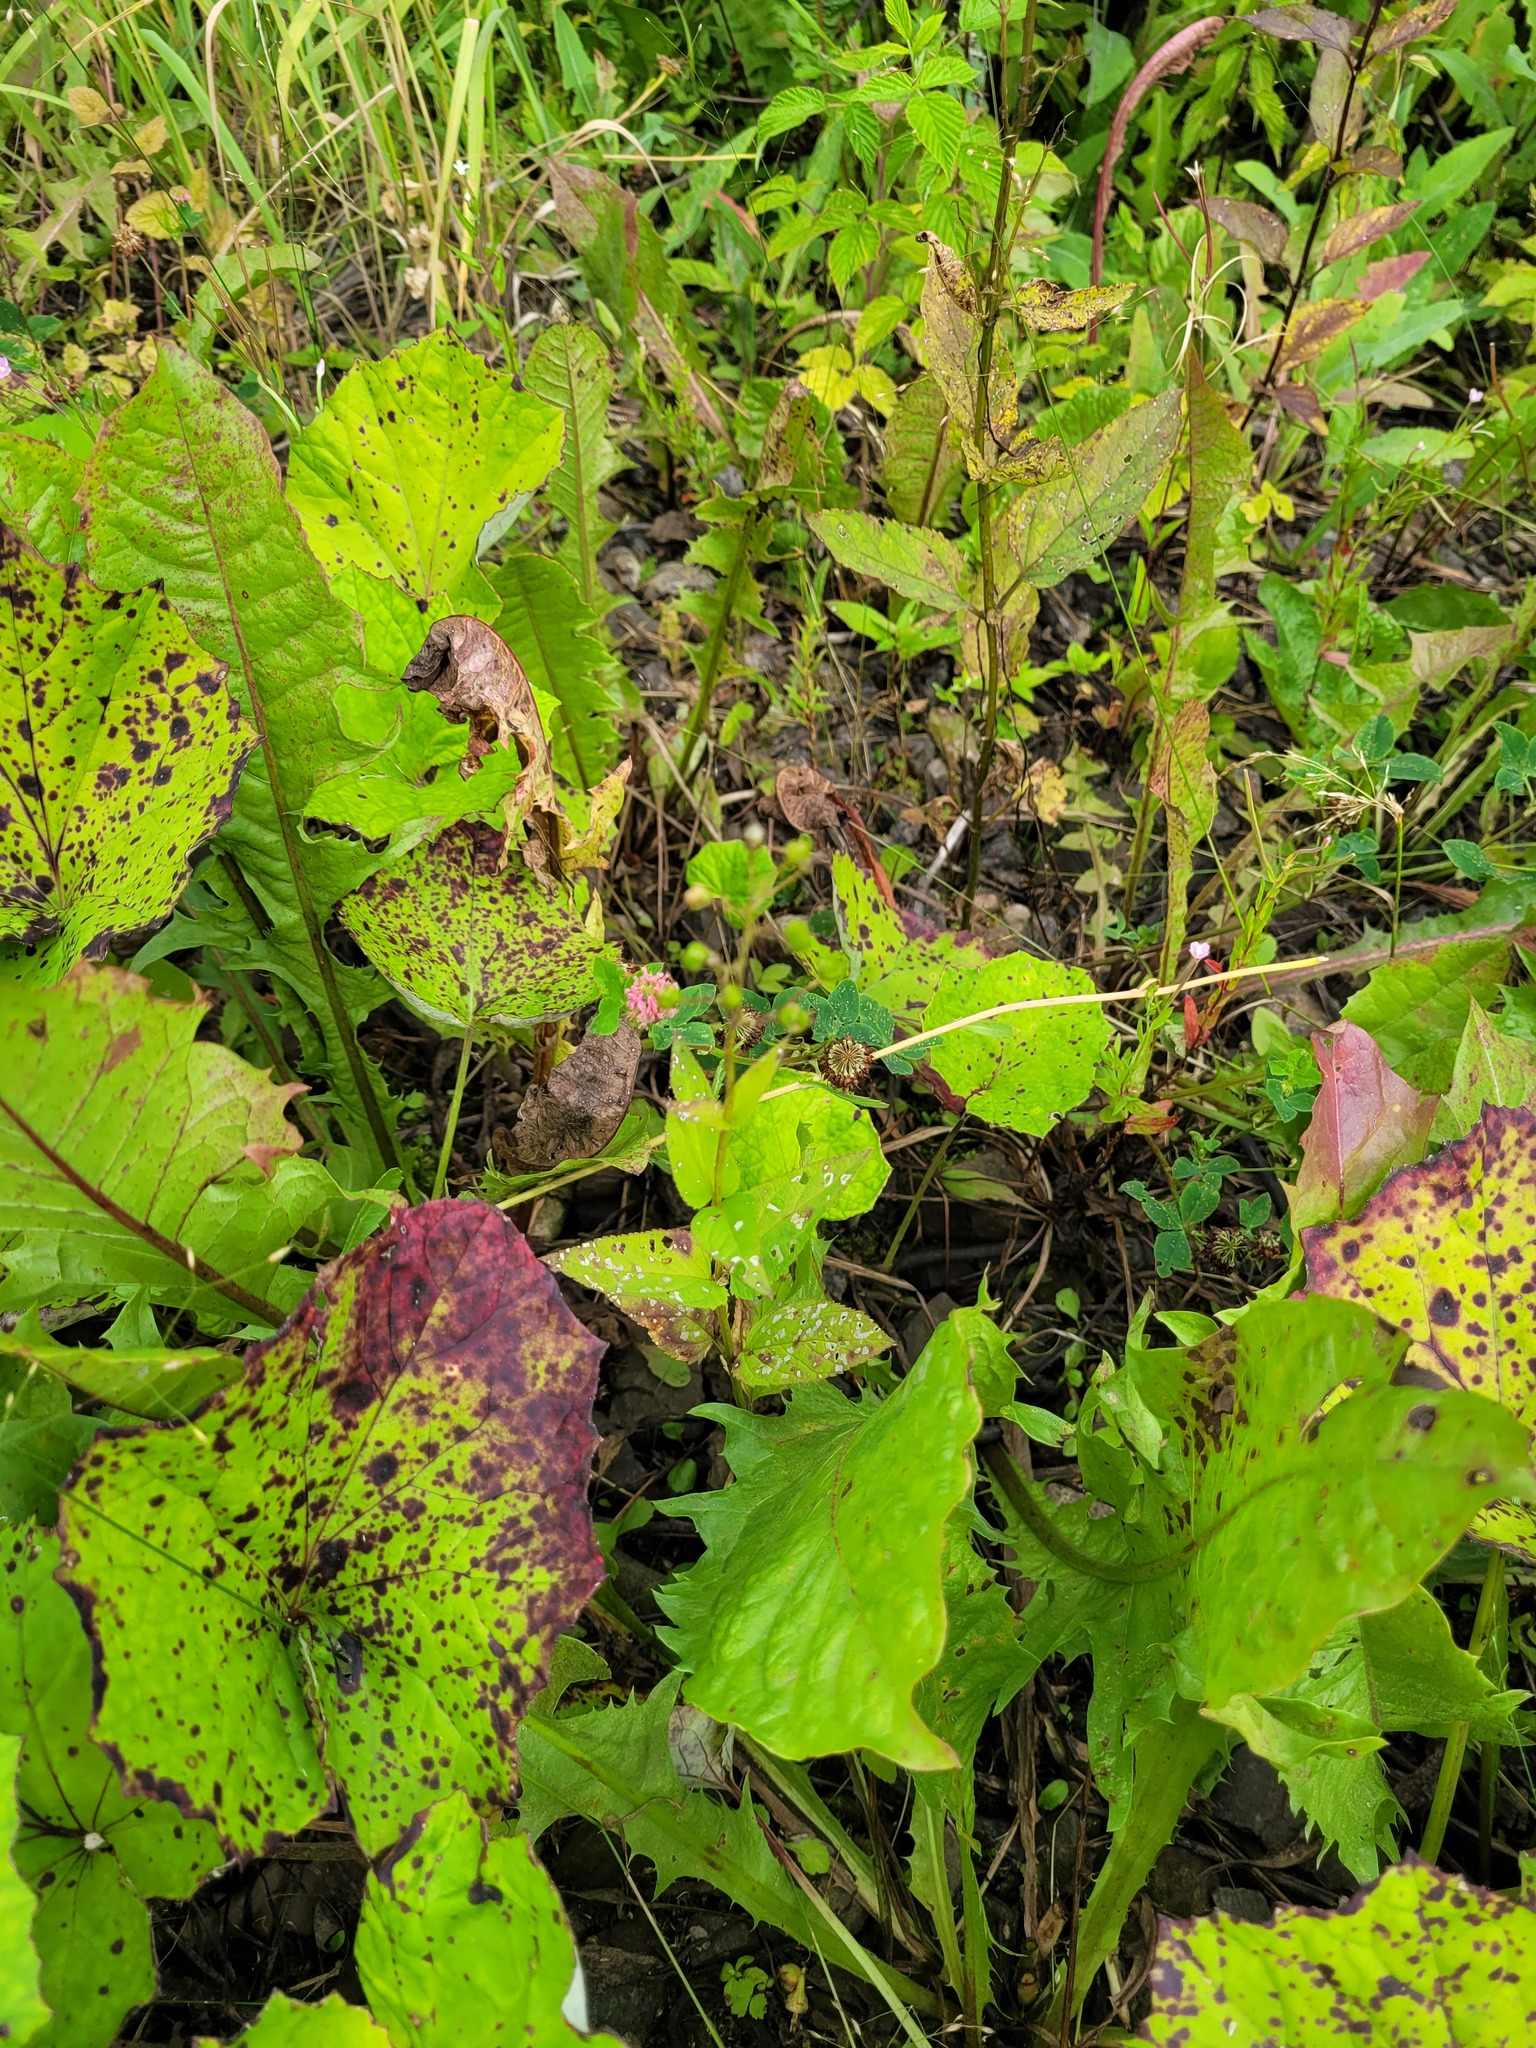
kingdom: Plantae
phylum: Tracheophyta
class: Magnoliopsida
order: Lamiales
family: Scrophulariaceae
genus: Scrophularia
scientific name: Scrophularia nodosa
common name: Common figwort
